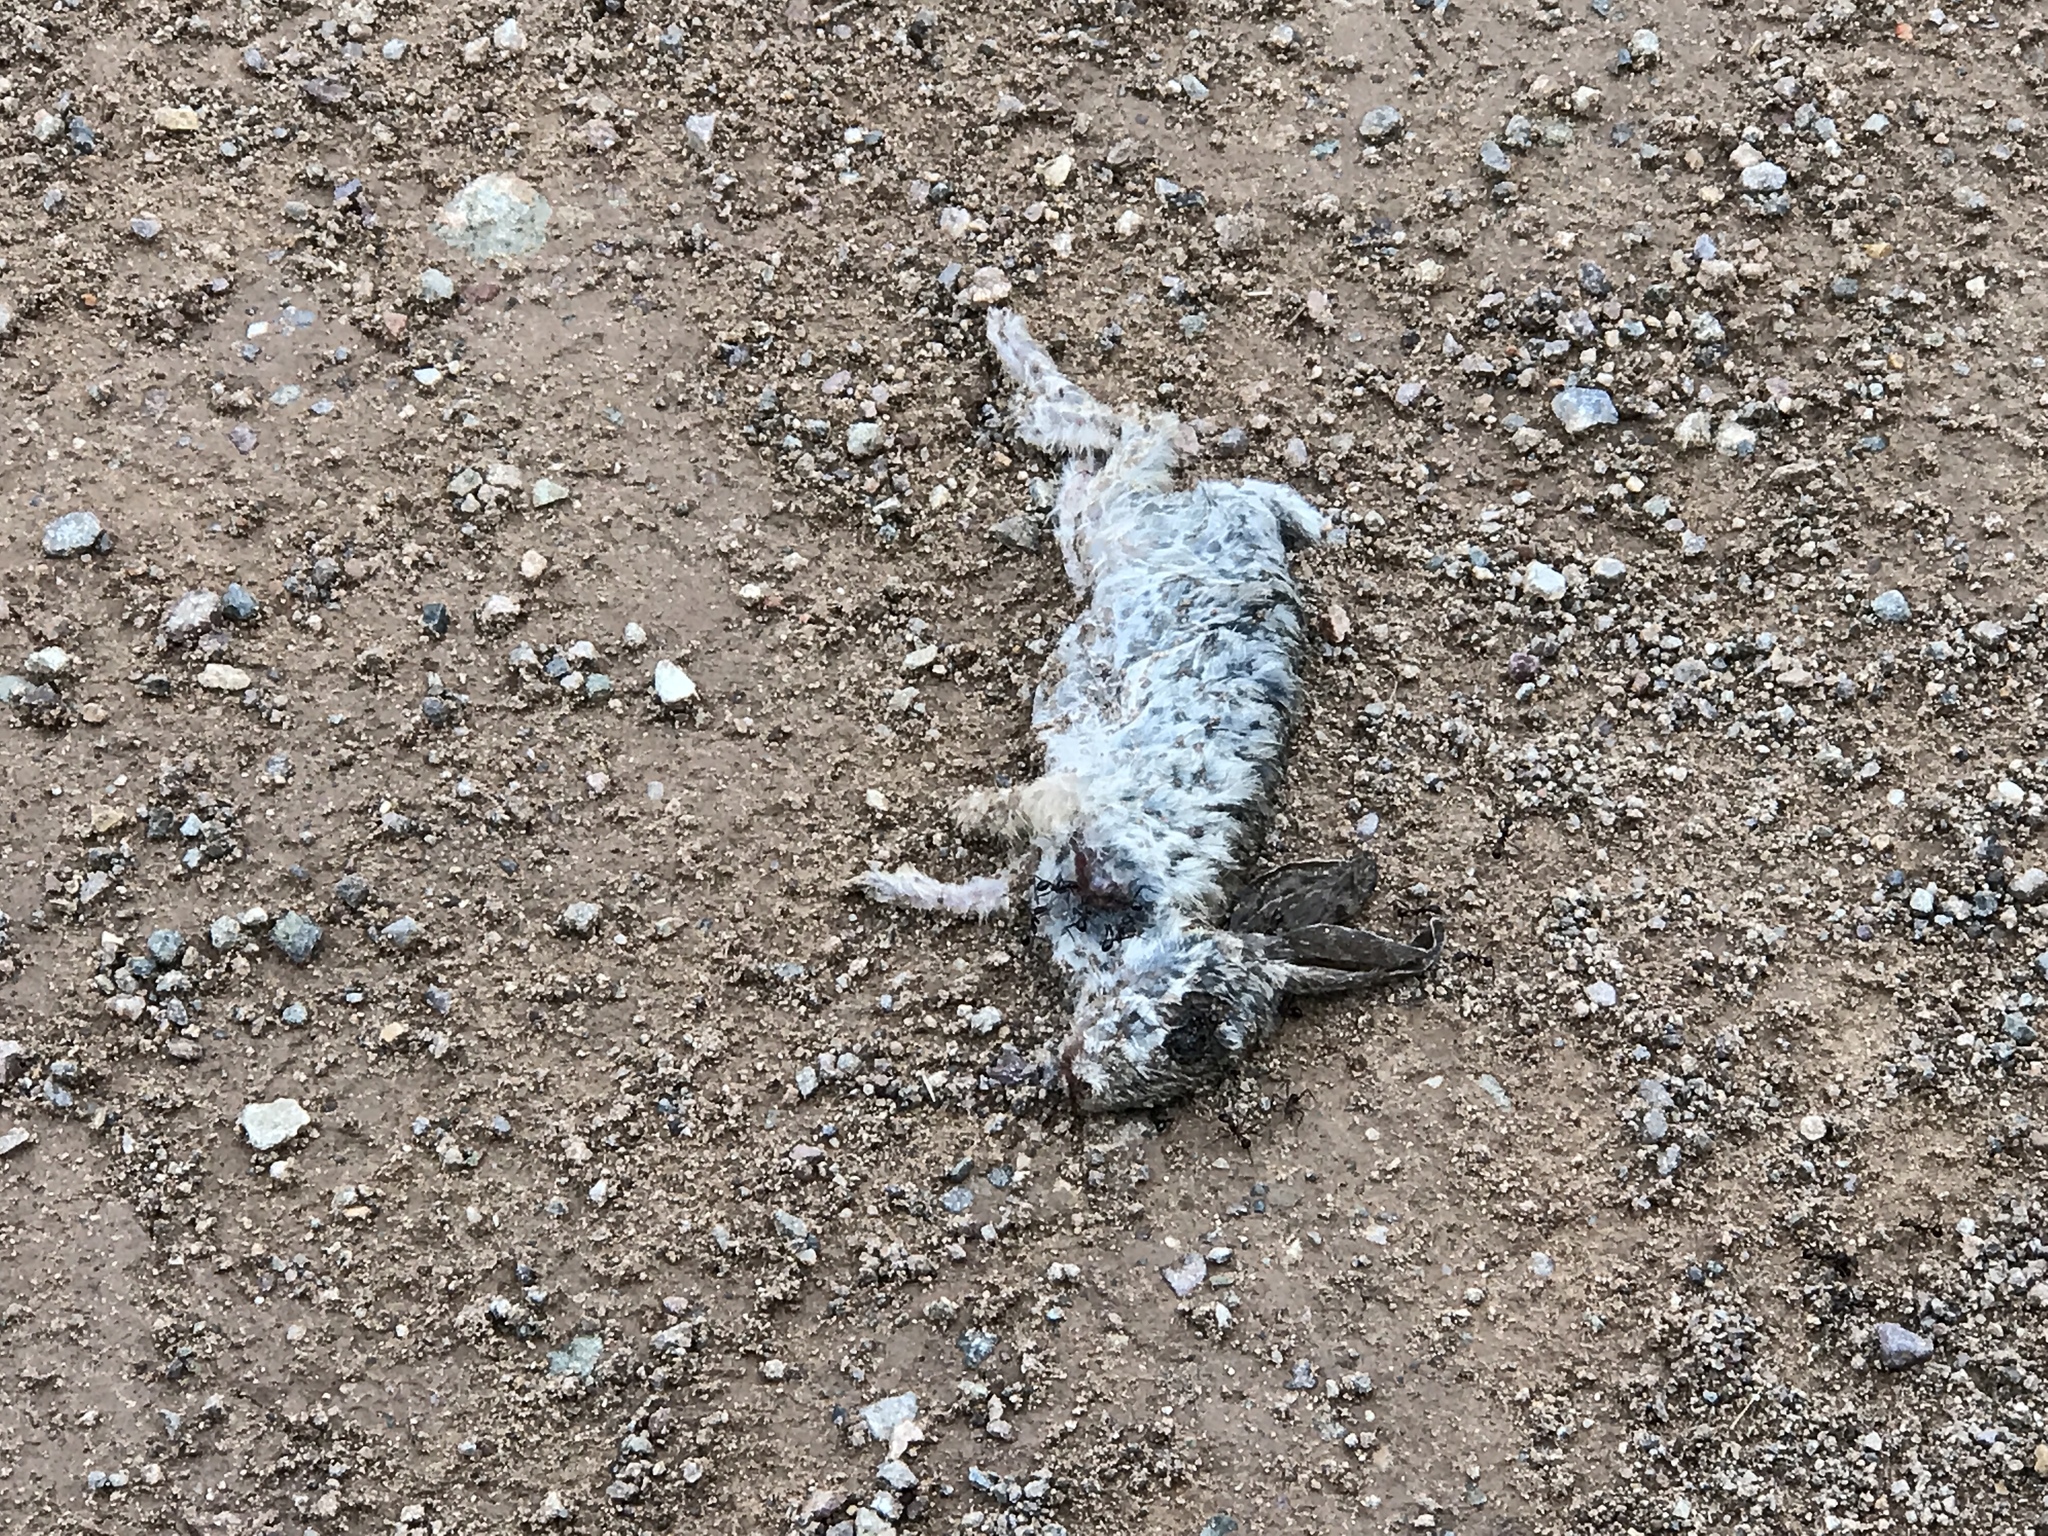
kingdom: Animalia
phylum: Chordata
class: Mammalia
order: Lagomorpha
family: Leporidae
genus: Sylvilagus
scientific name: Sylvilagus audubonii
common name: Desert cottontail
